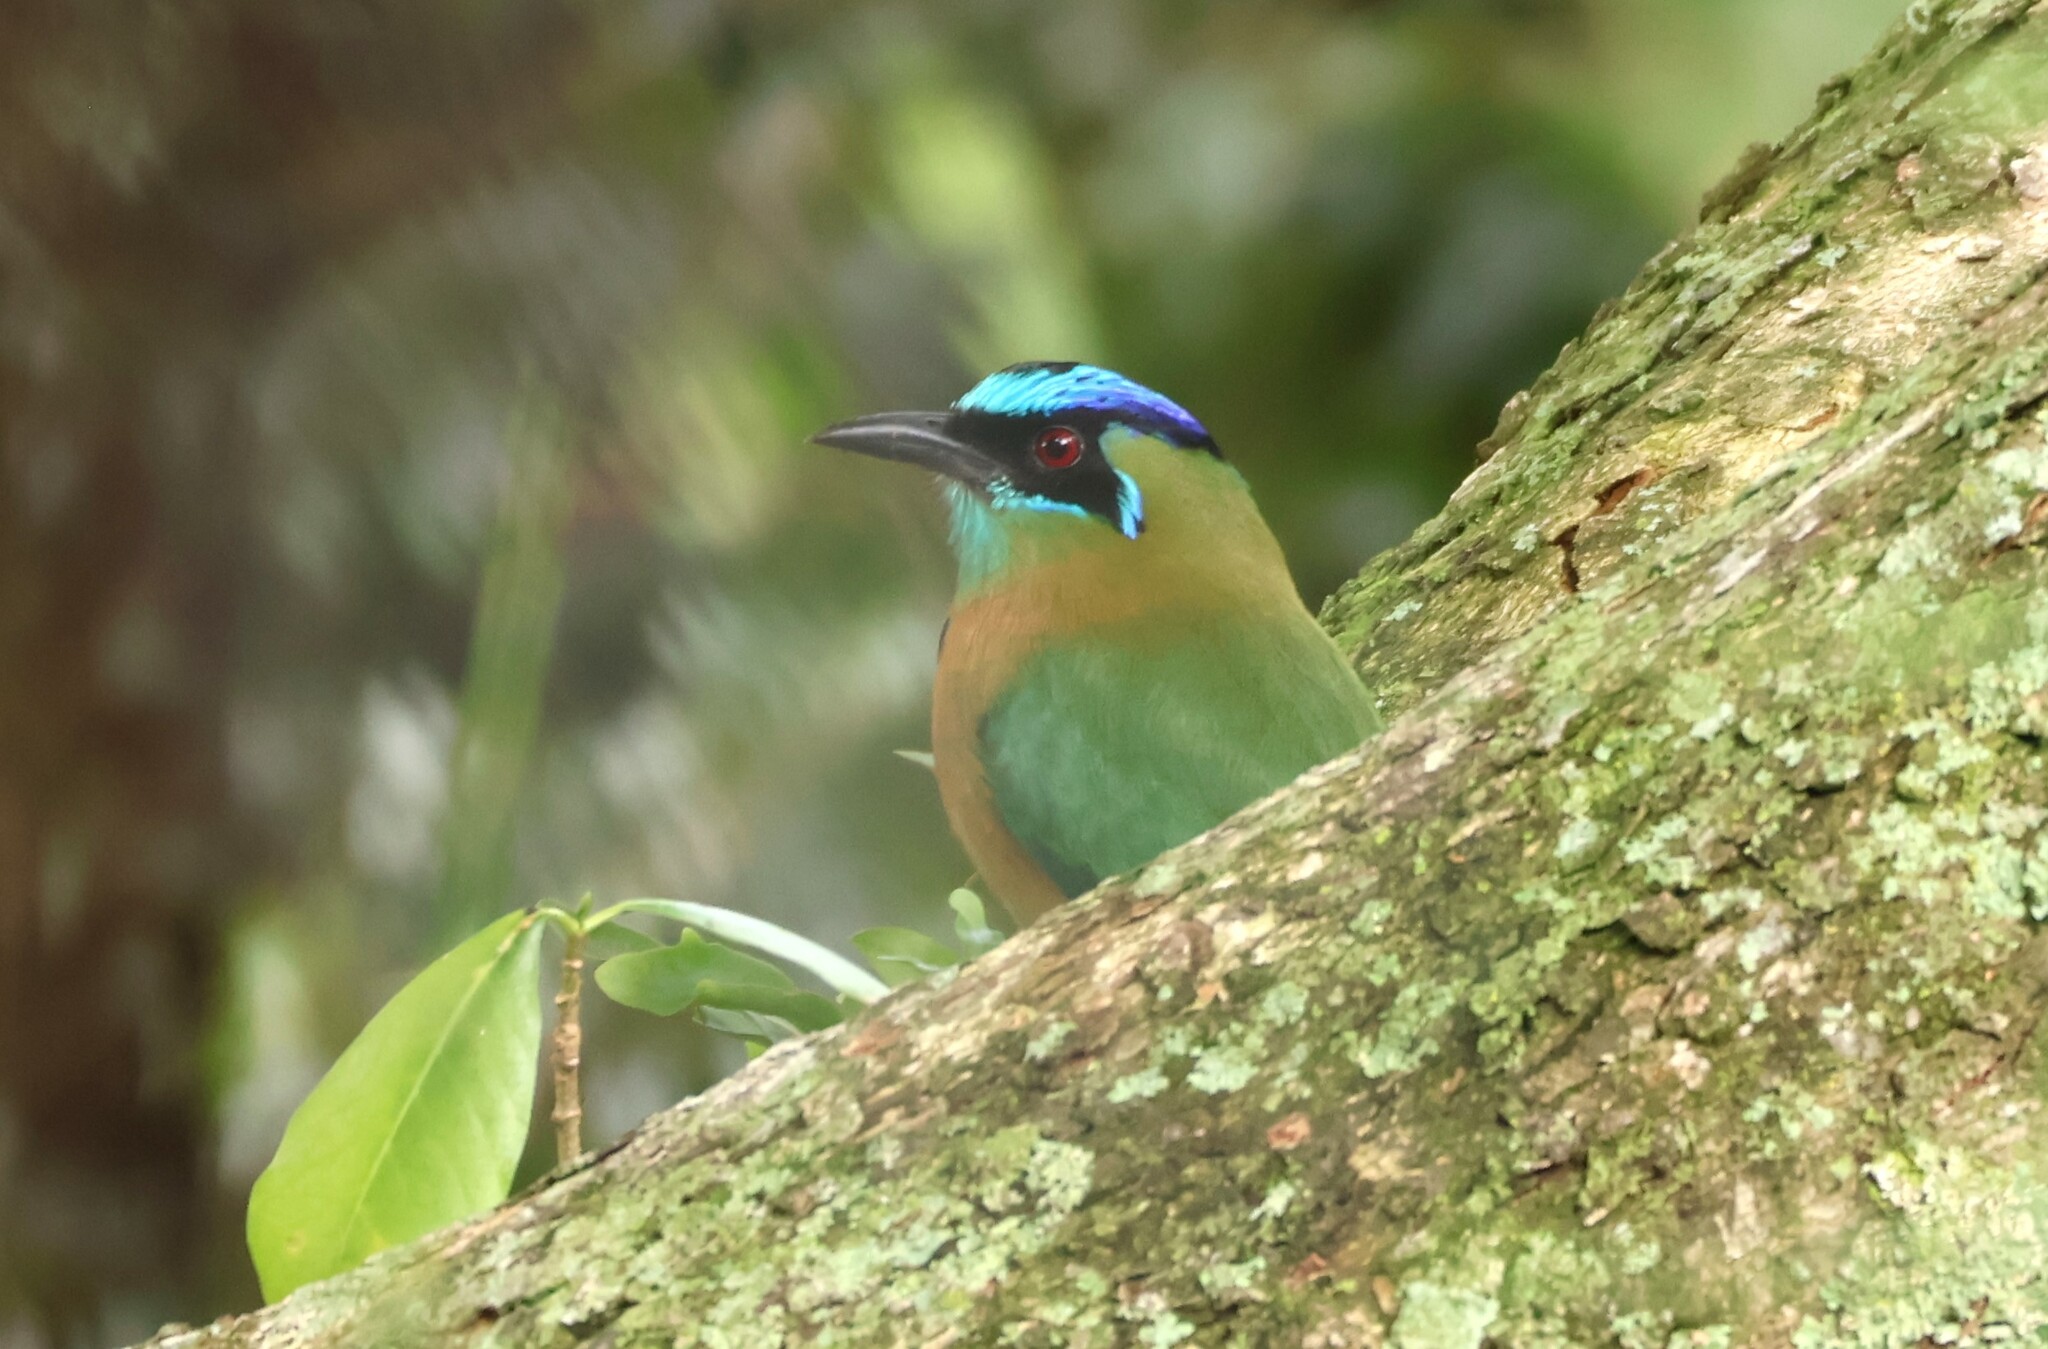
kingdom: Animalia
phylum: Chordata
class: Aves
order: Coraciiformes
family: Momotidae
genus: Momotus
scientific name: Momotus lessonii
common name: Lesson's motmot
